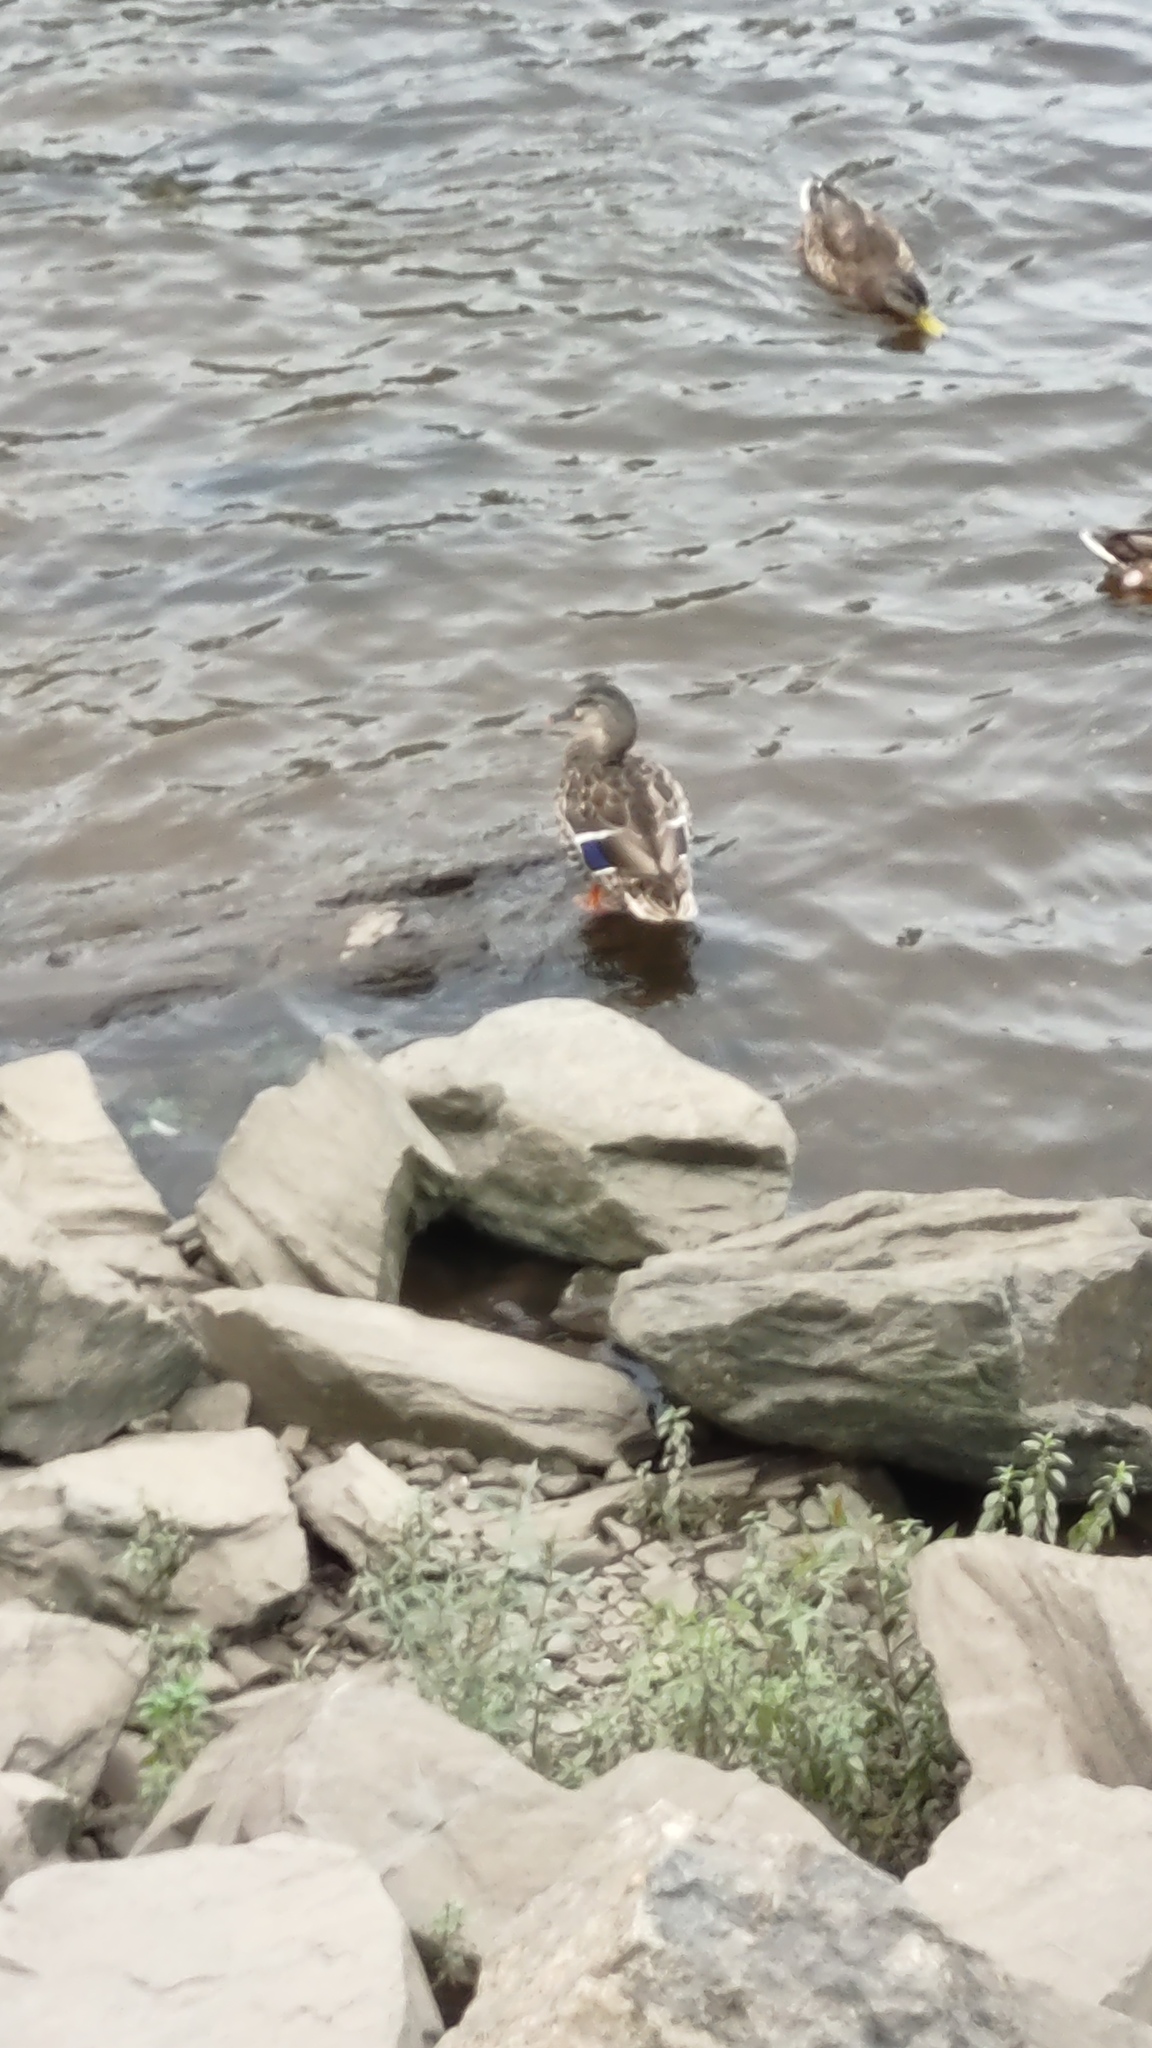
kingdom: Animalia
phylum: Chordata
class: Aves
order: Anseriformes
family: Anatidae
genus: Anas
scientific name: Anas platyrhynchos
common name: Mallard
